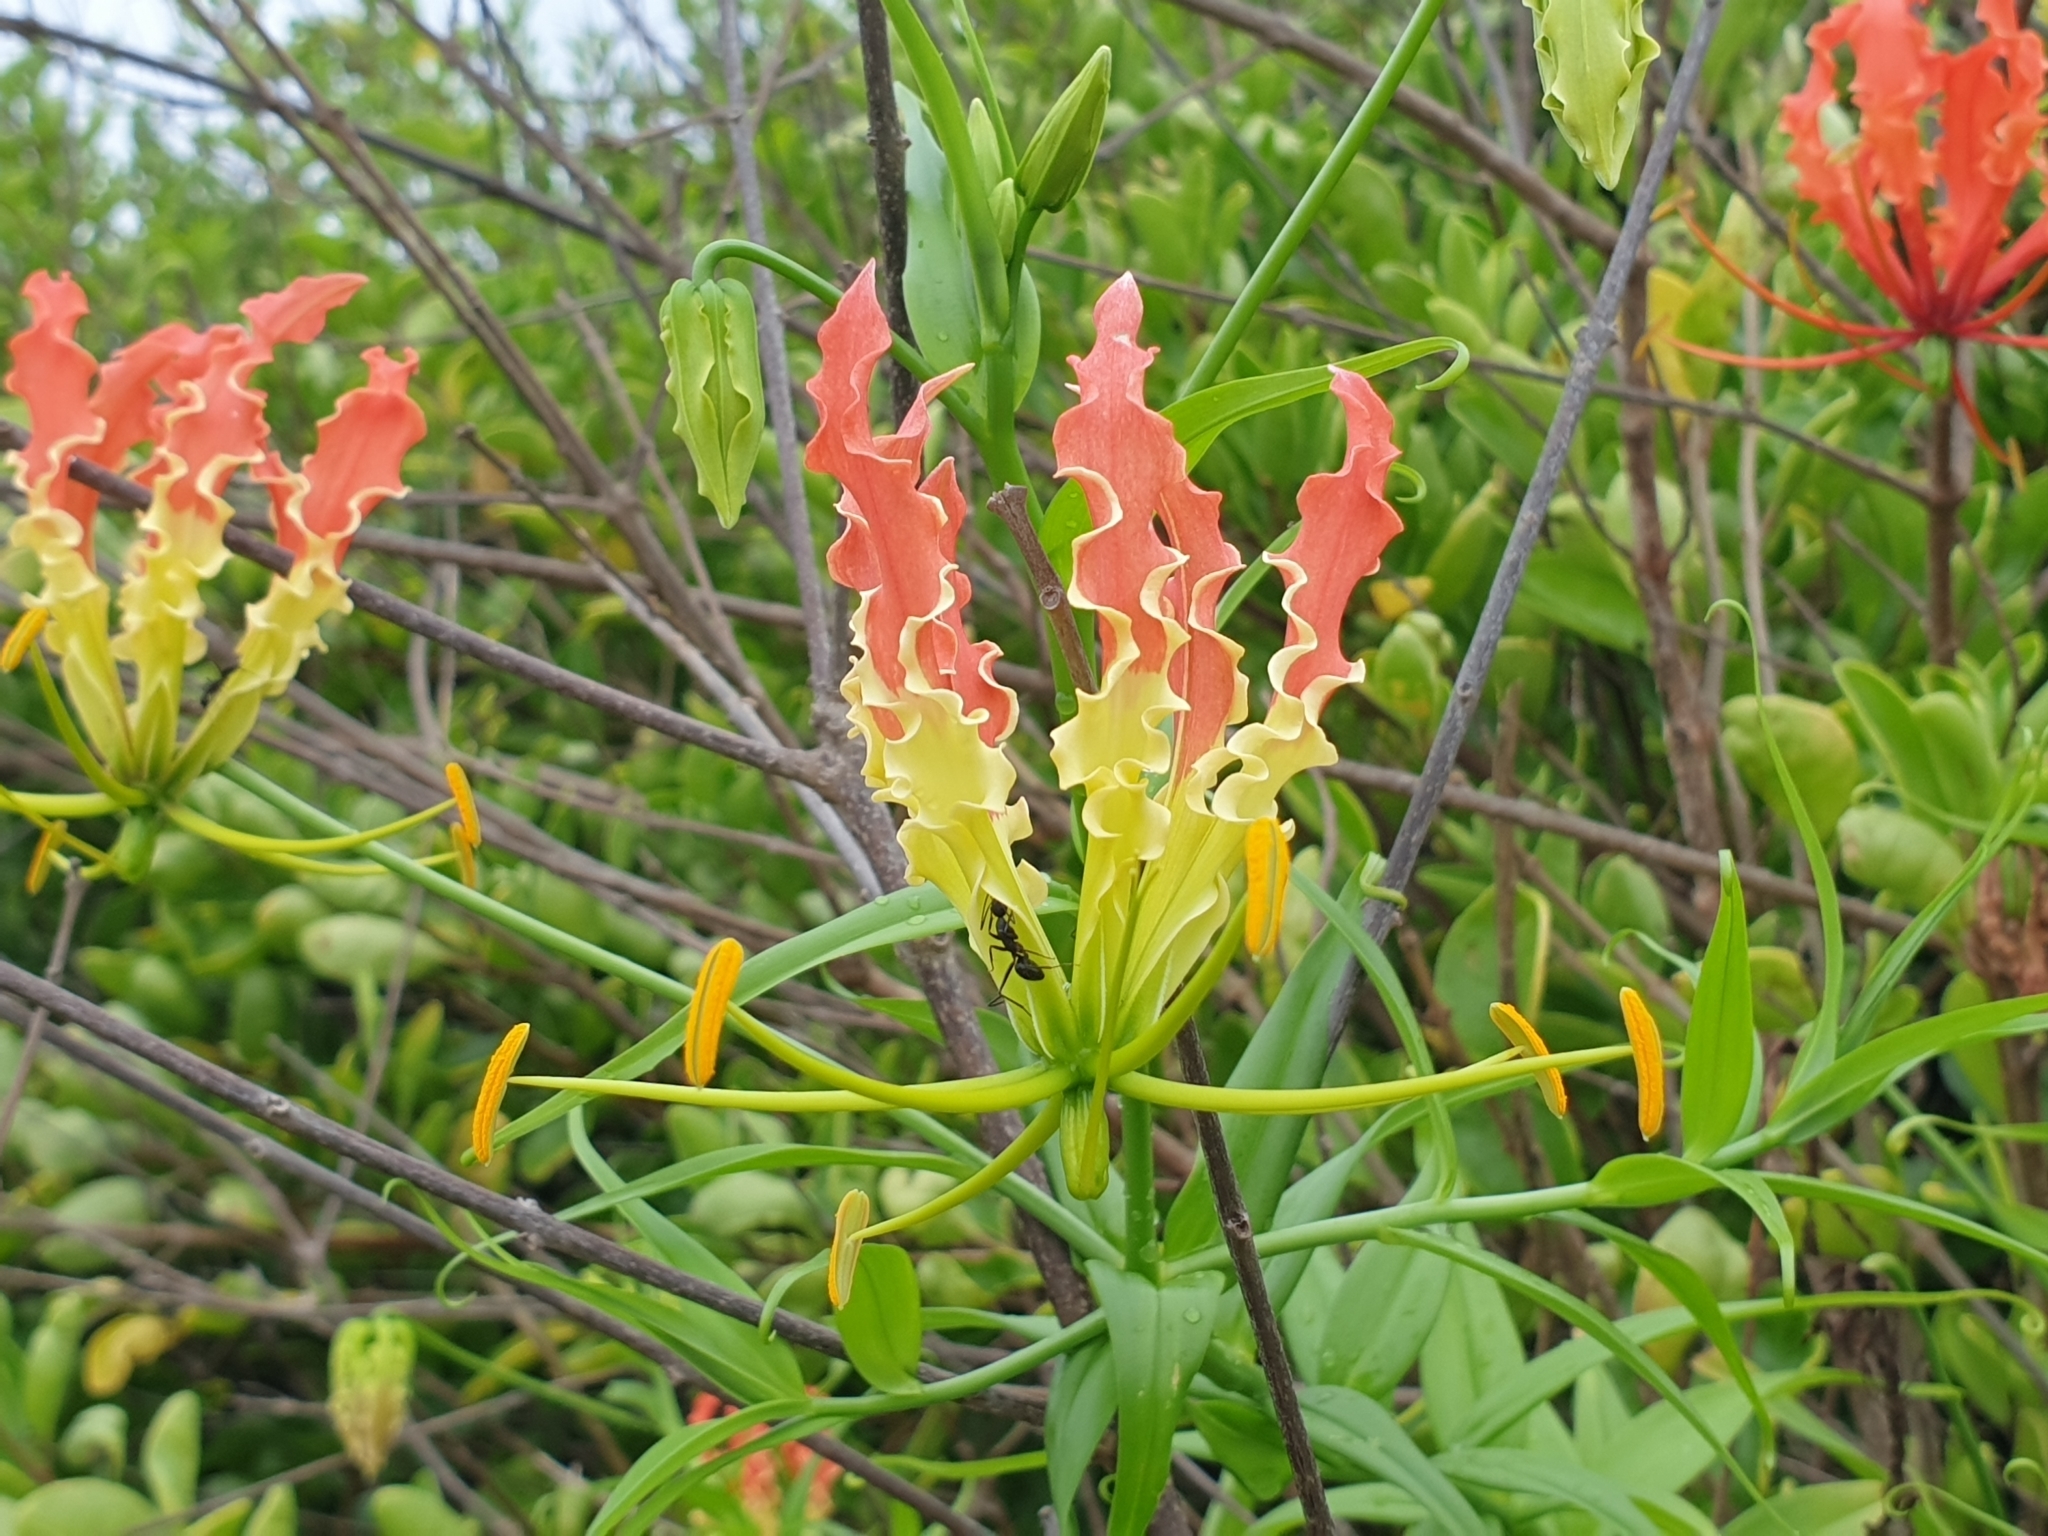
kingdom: Plantae
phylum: Tracheophyta
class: Liliopsida
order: Liliales
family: Colchicaceae
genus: Gloriosa
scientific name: Gloriosa superba
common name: Flame lily
